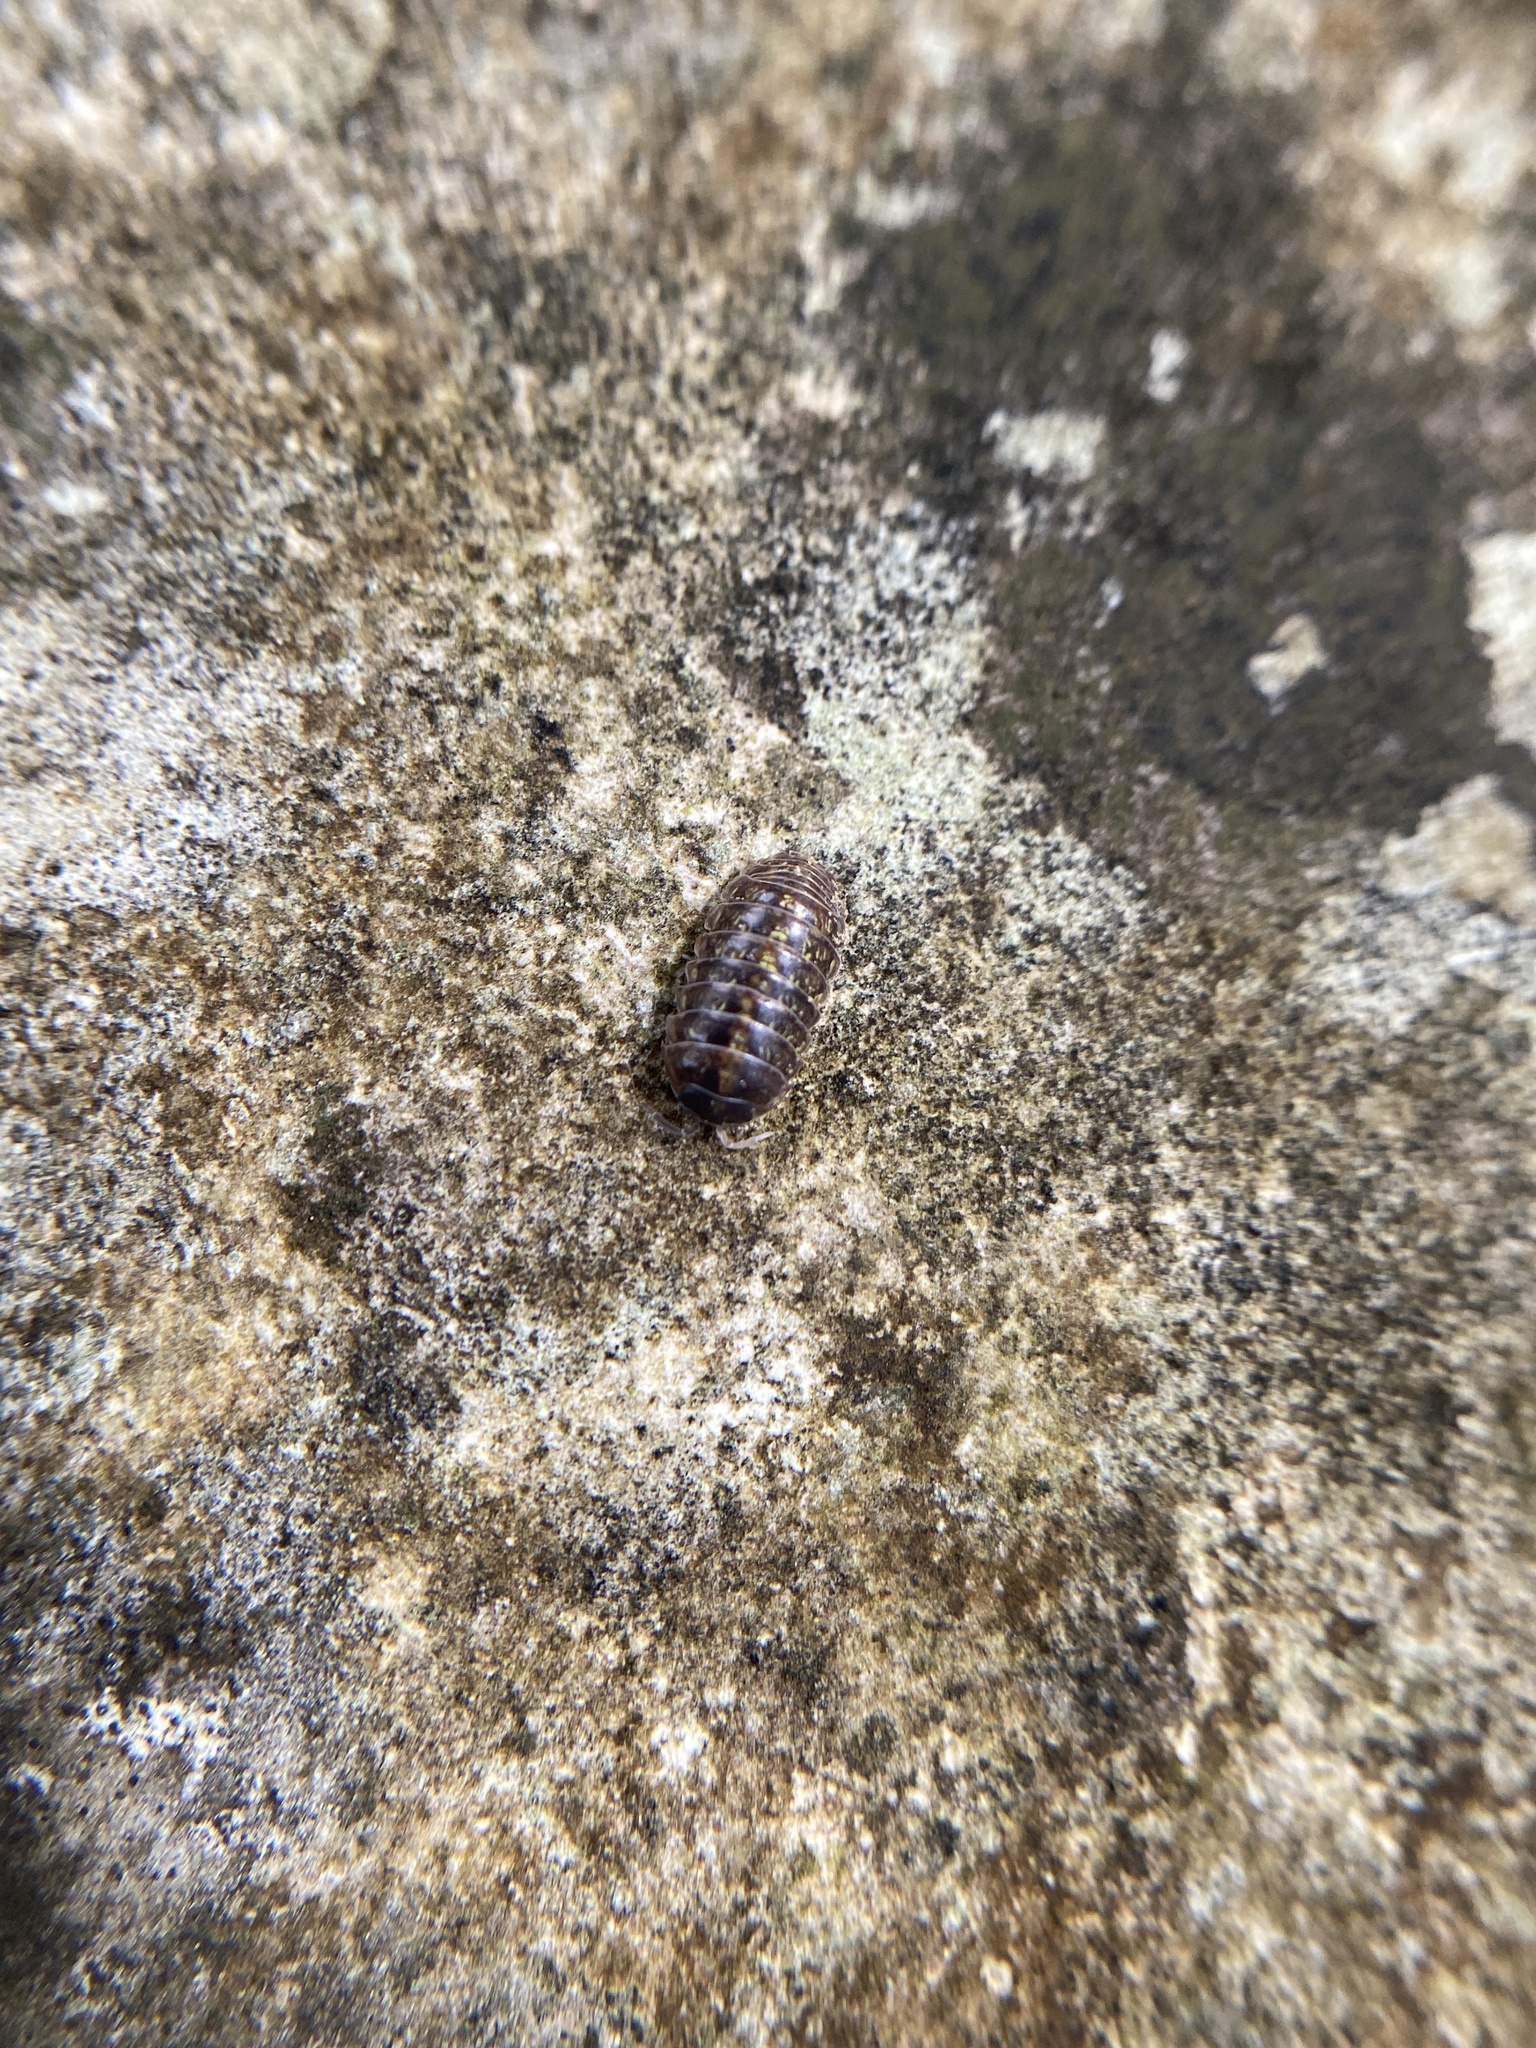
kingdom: Animalia
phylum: Arthropoda
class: Malacostraca
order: Isopoda
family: Armadillidiidae
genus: Armadillidium
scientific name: Armadillidium vulgare
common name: Common pill woodlouse
